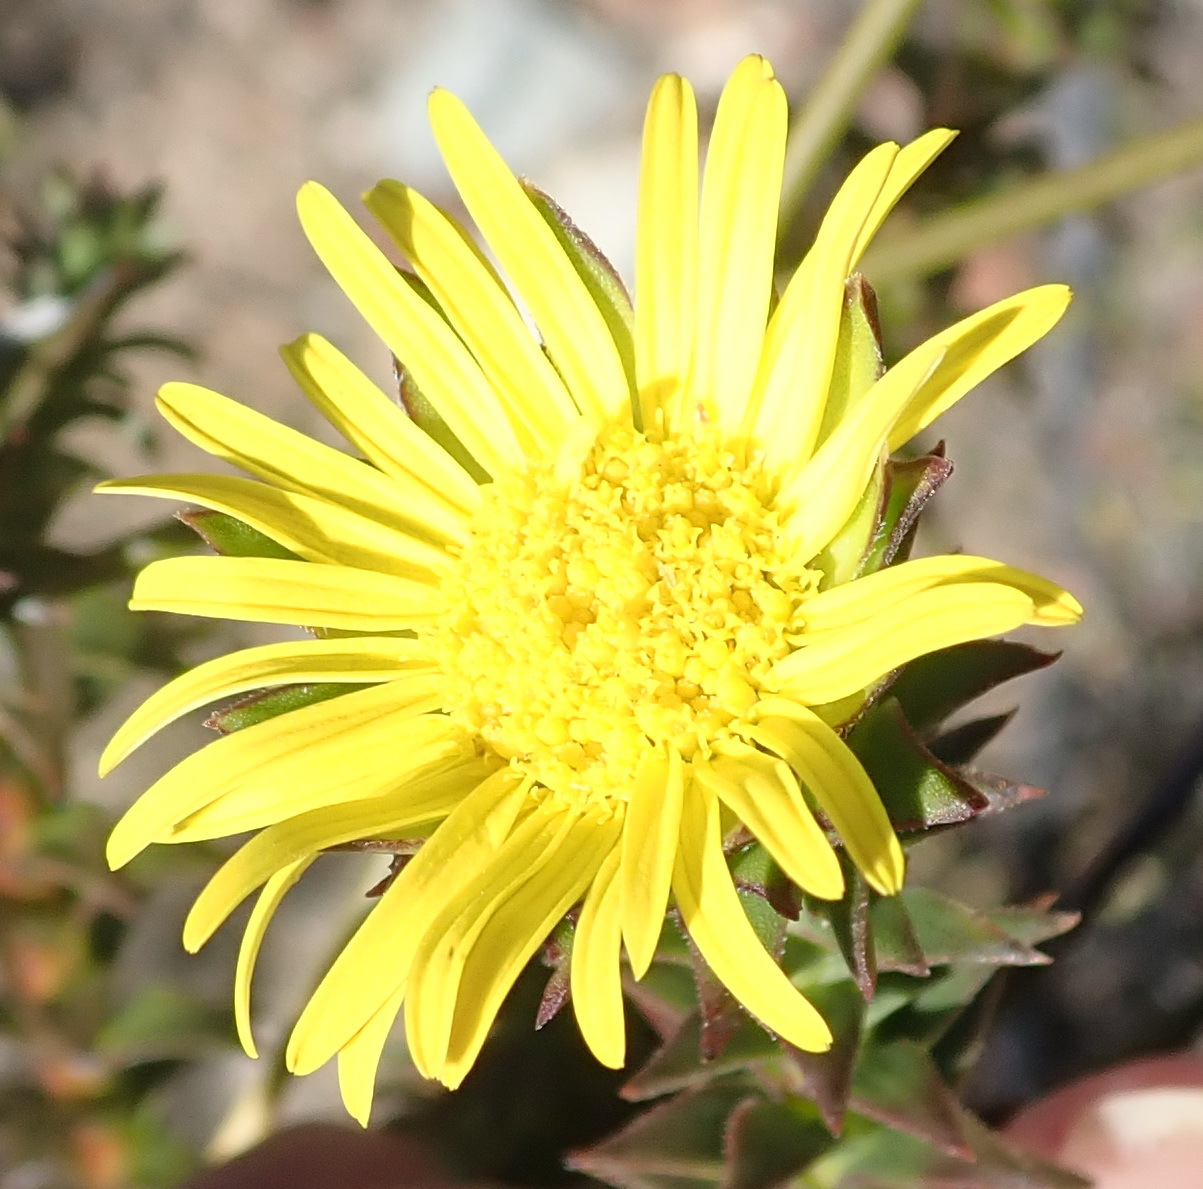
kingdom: Plantae
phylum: Tracheophyta
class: Magnoliopsida
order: Asterales
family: Asteraceae
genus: Oedera
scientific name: Oedera imbricata
